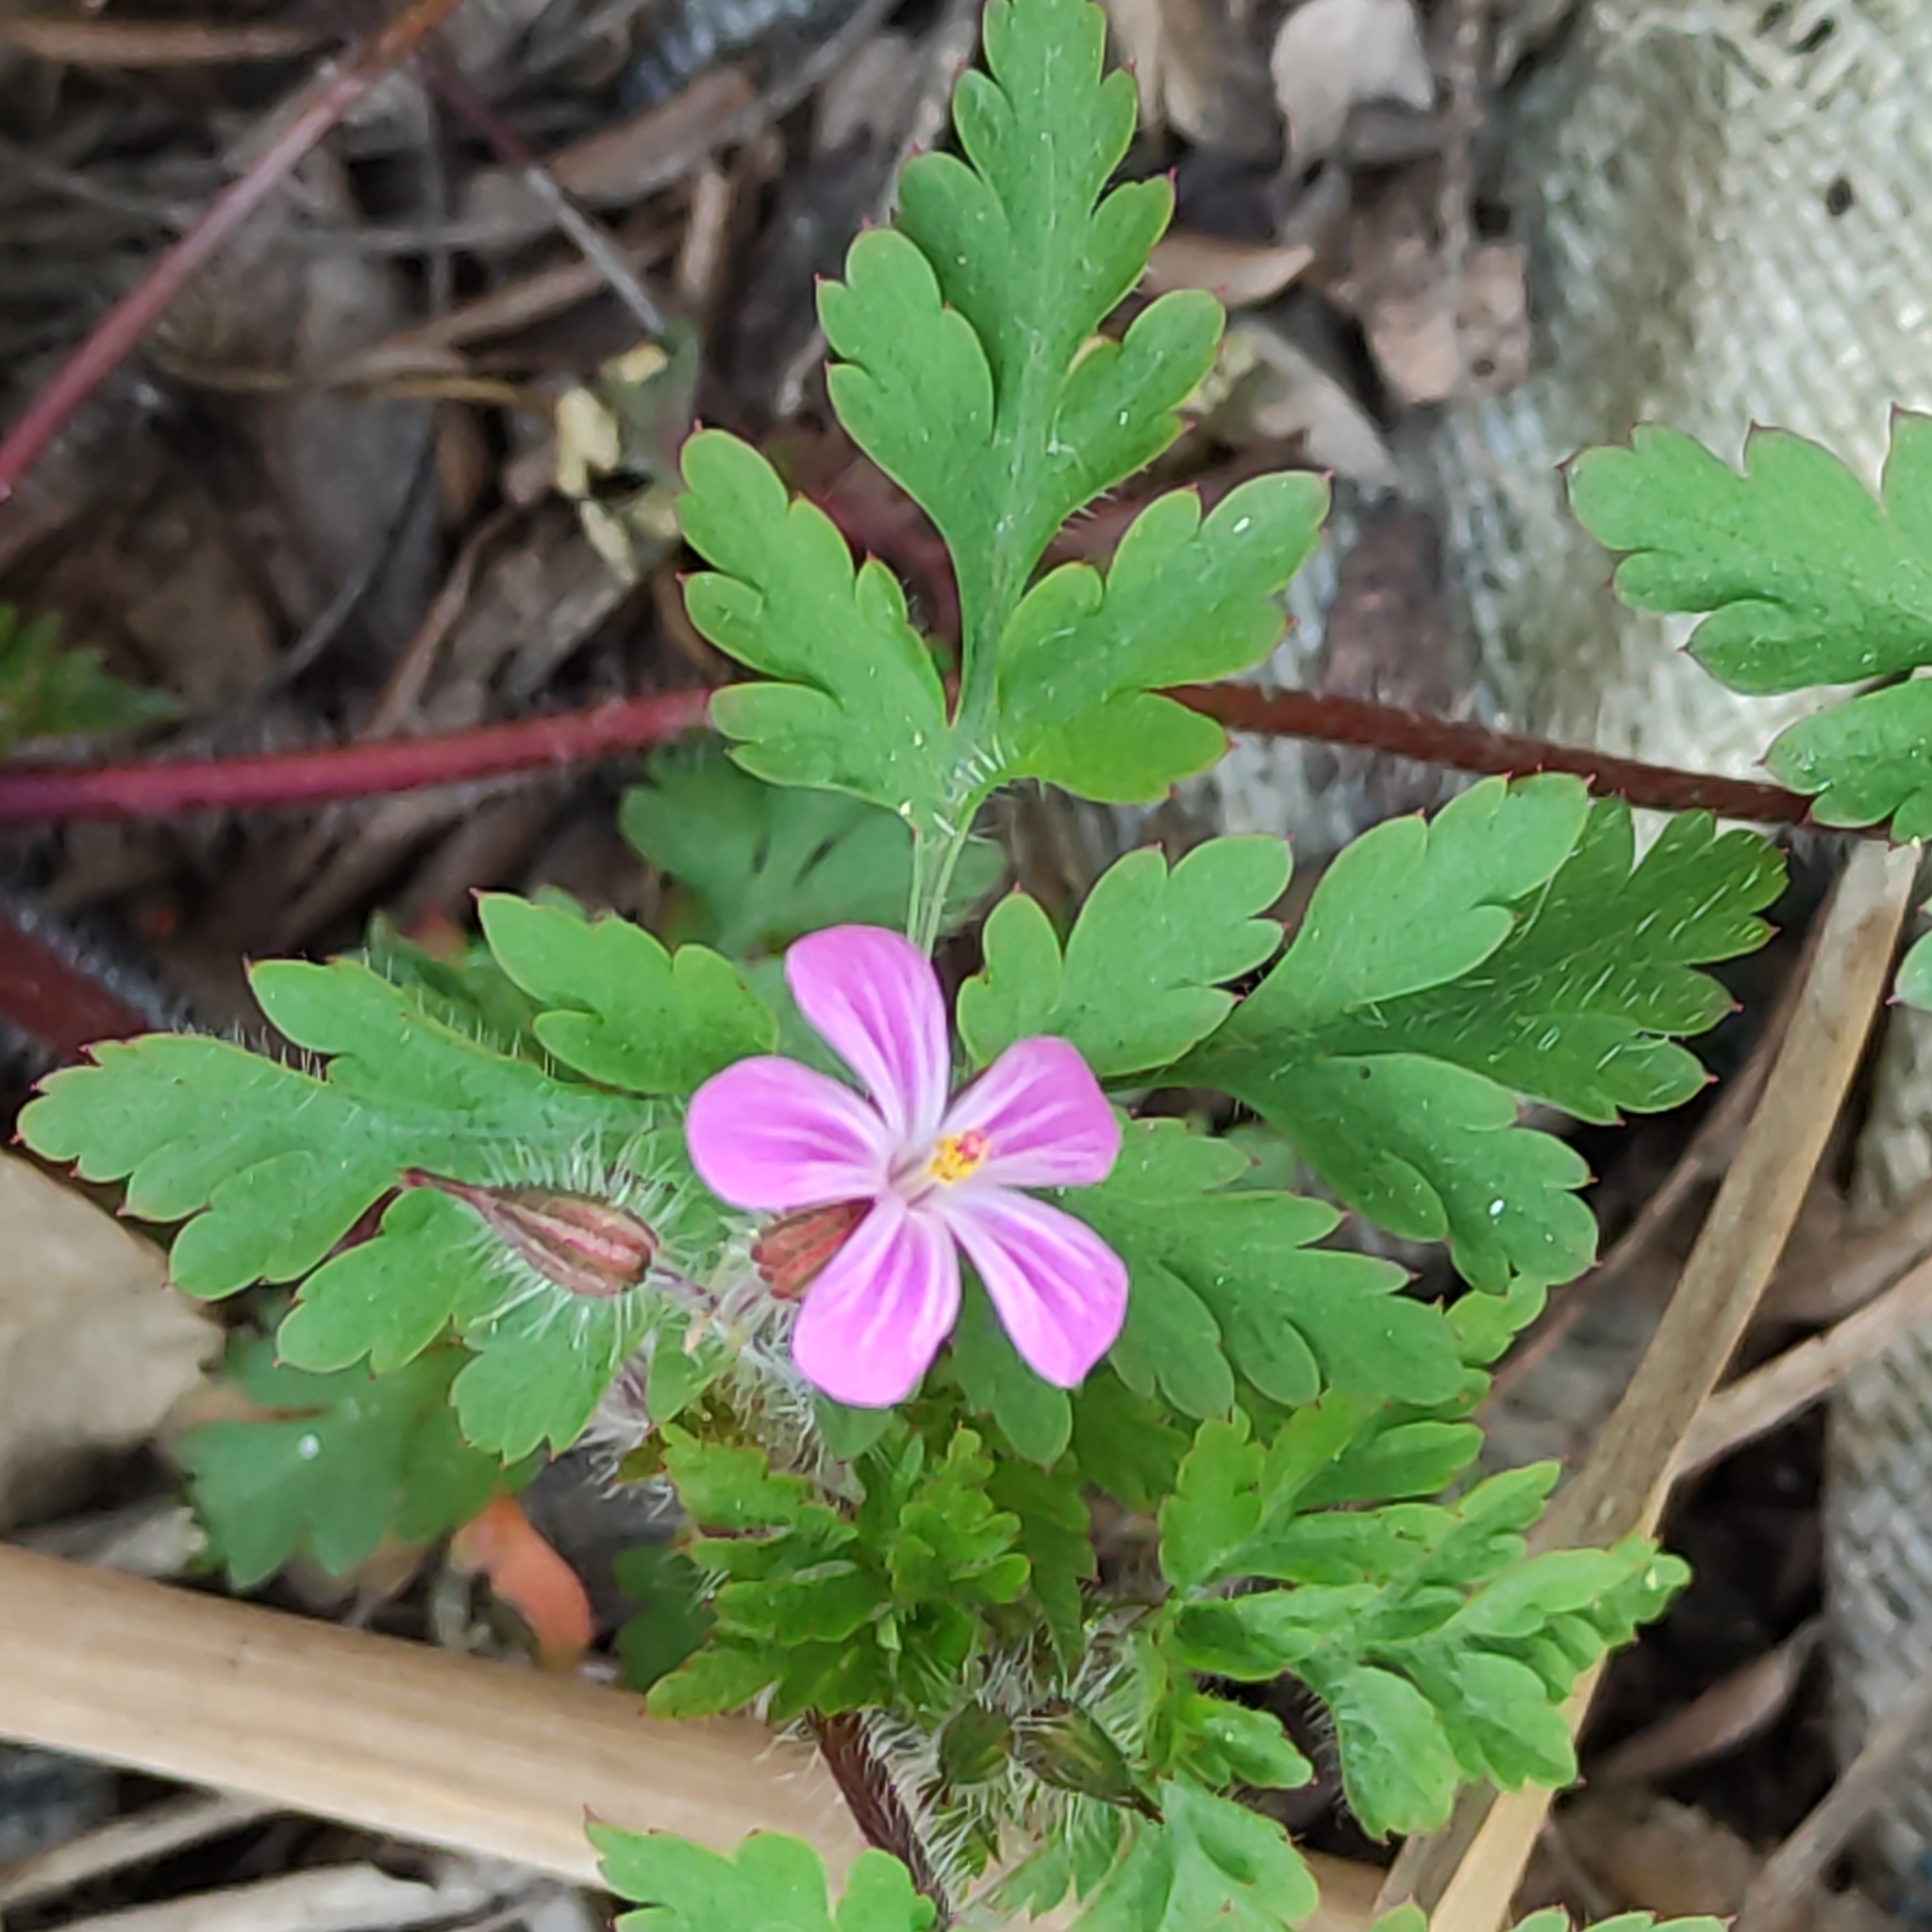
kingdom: Plantae
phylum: Tracheophyta
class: Magnoliopsida
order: Geraniales
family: Geraniaceae
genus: Geranium
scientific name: Geranium robertianum
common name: Herb-robert
